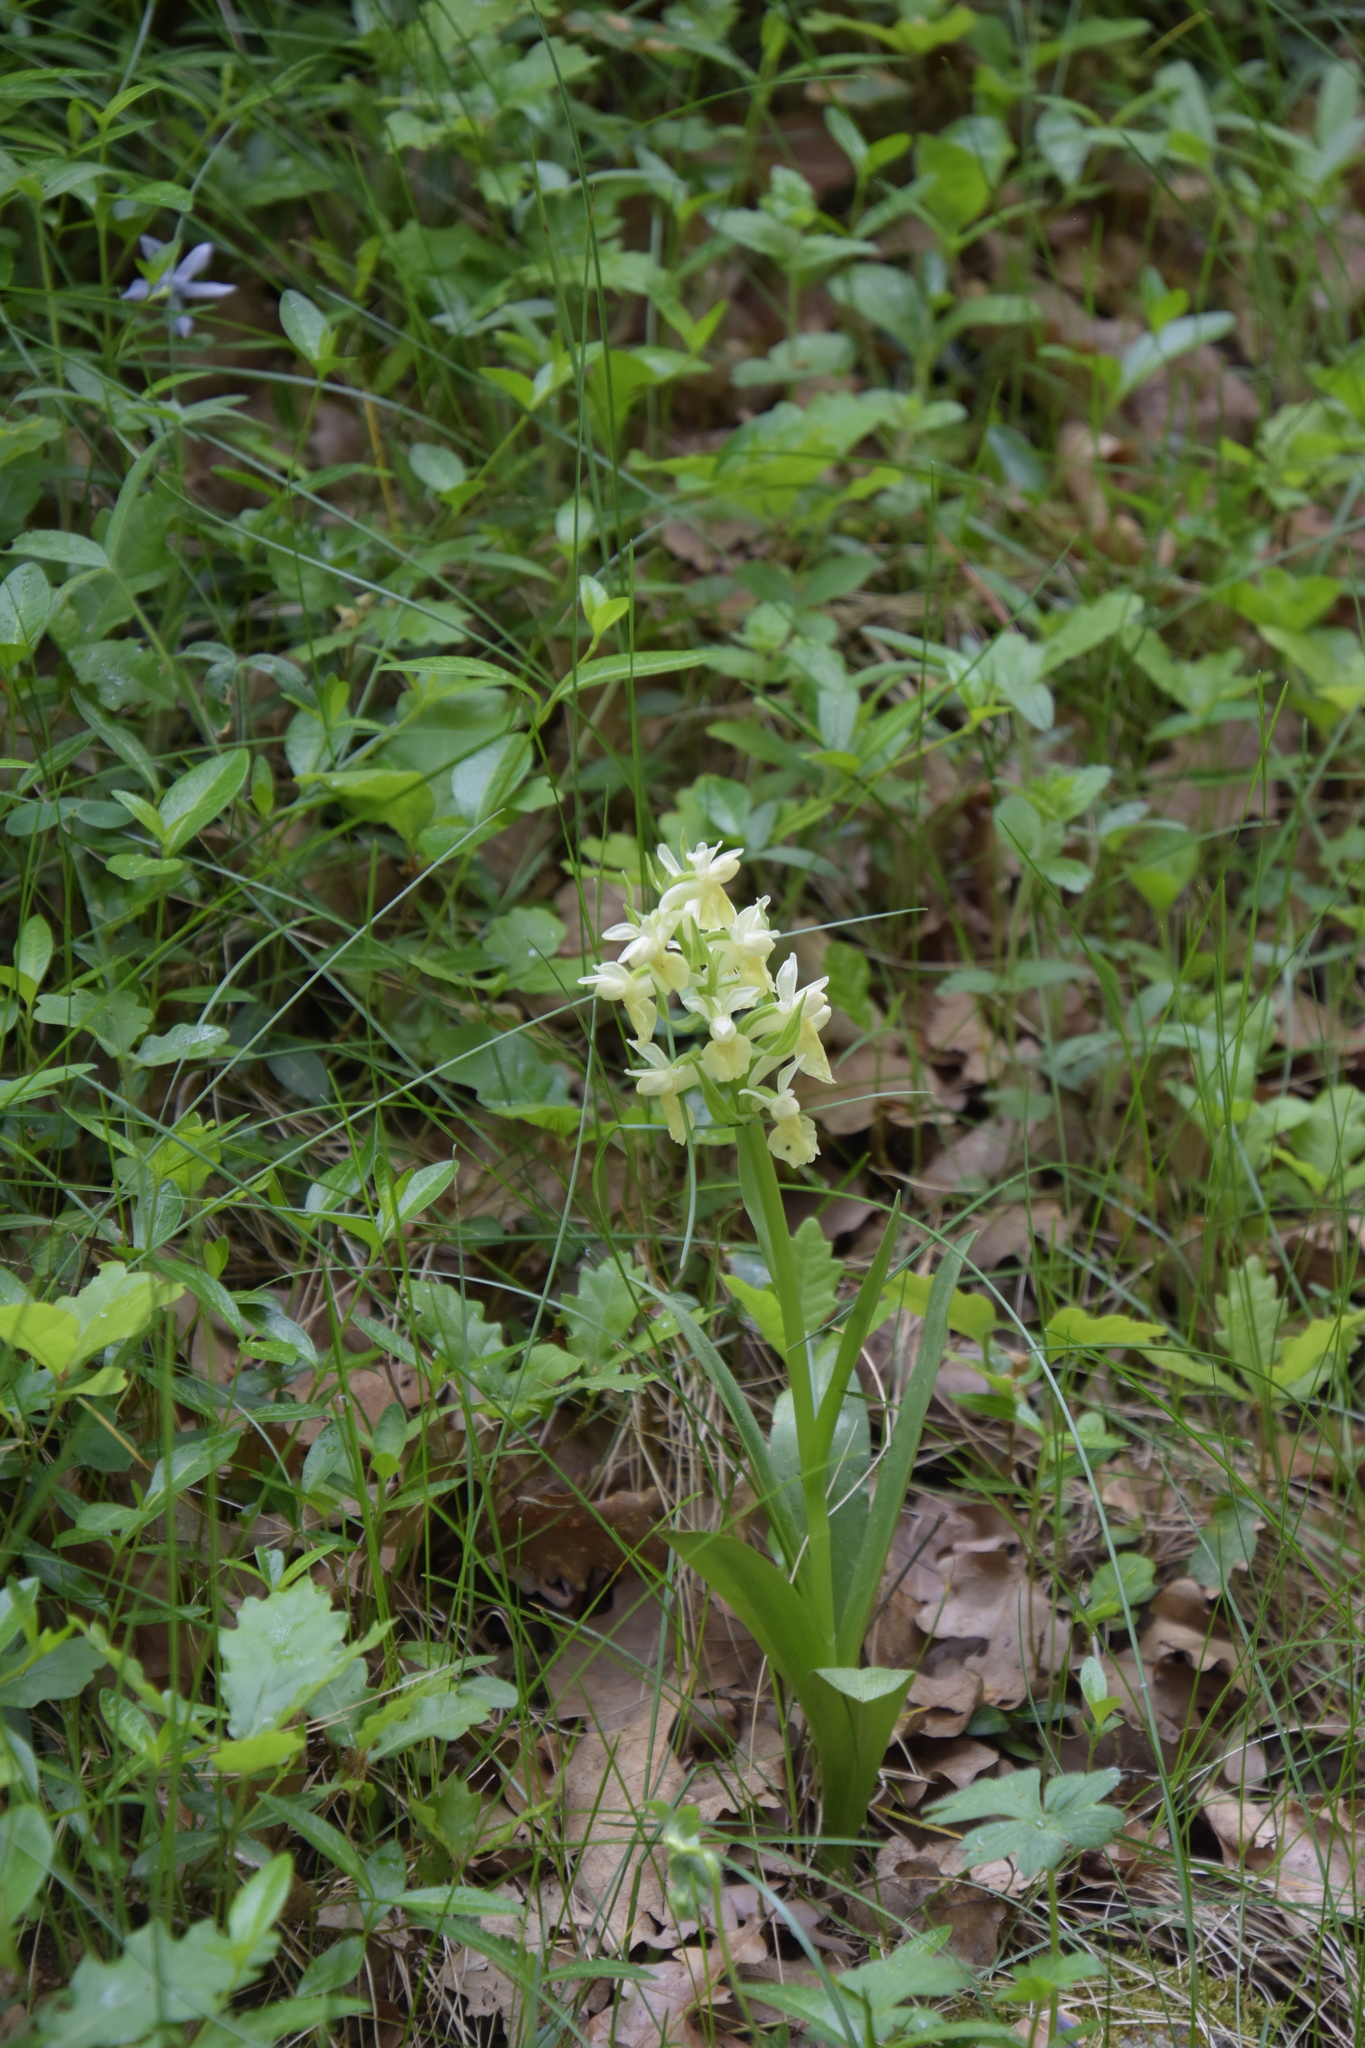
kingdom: Plantae
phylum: Tracheophyta
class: Liliopsida
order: Asparagales
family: Orchidaceae
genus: Dactylorhiza
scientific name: Dactylorhiza sambucina
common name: Elder-flowered orchid
